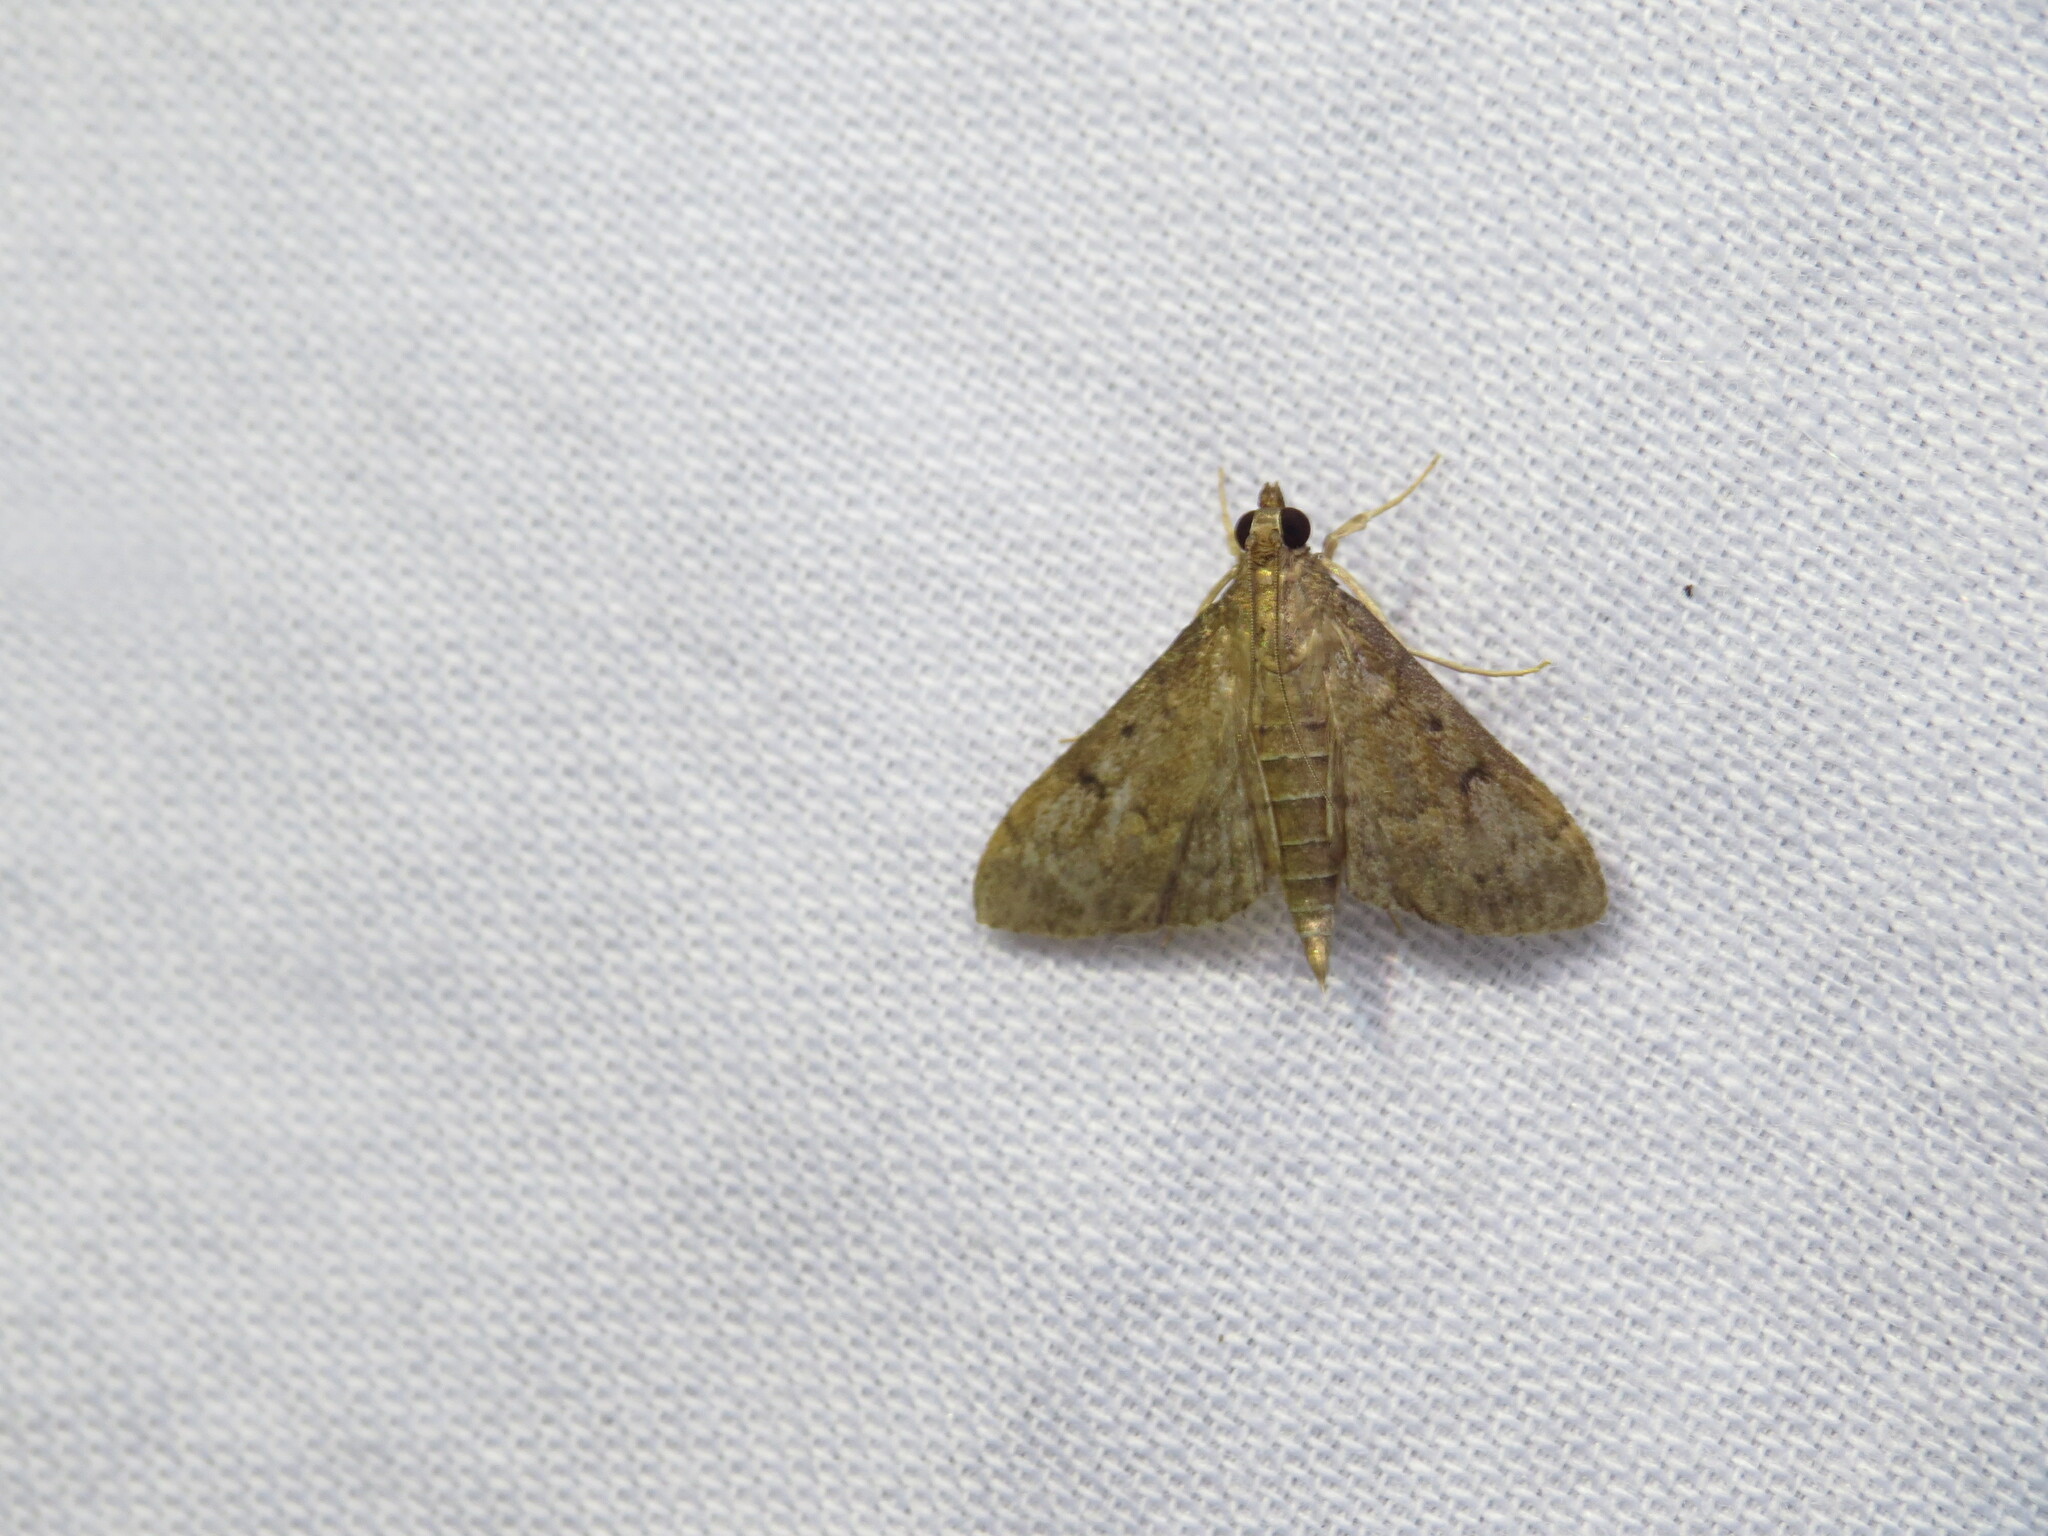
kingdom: Animalia
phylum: Arthropoda
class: Insecta
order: Lepidoptera
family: Crambidae
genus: Herpetogramma
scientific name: Herpetogramma phaeopteralis
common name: Dusky herpetogramma moth
